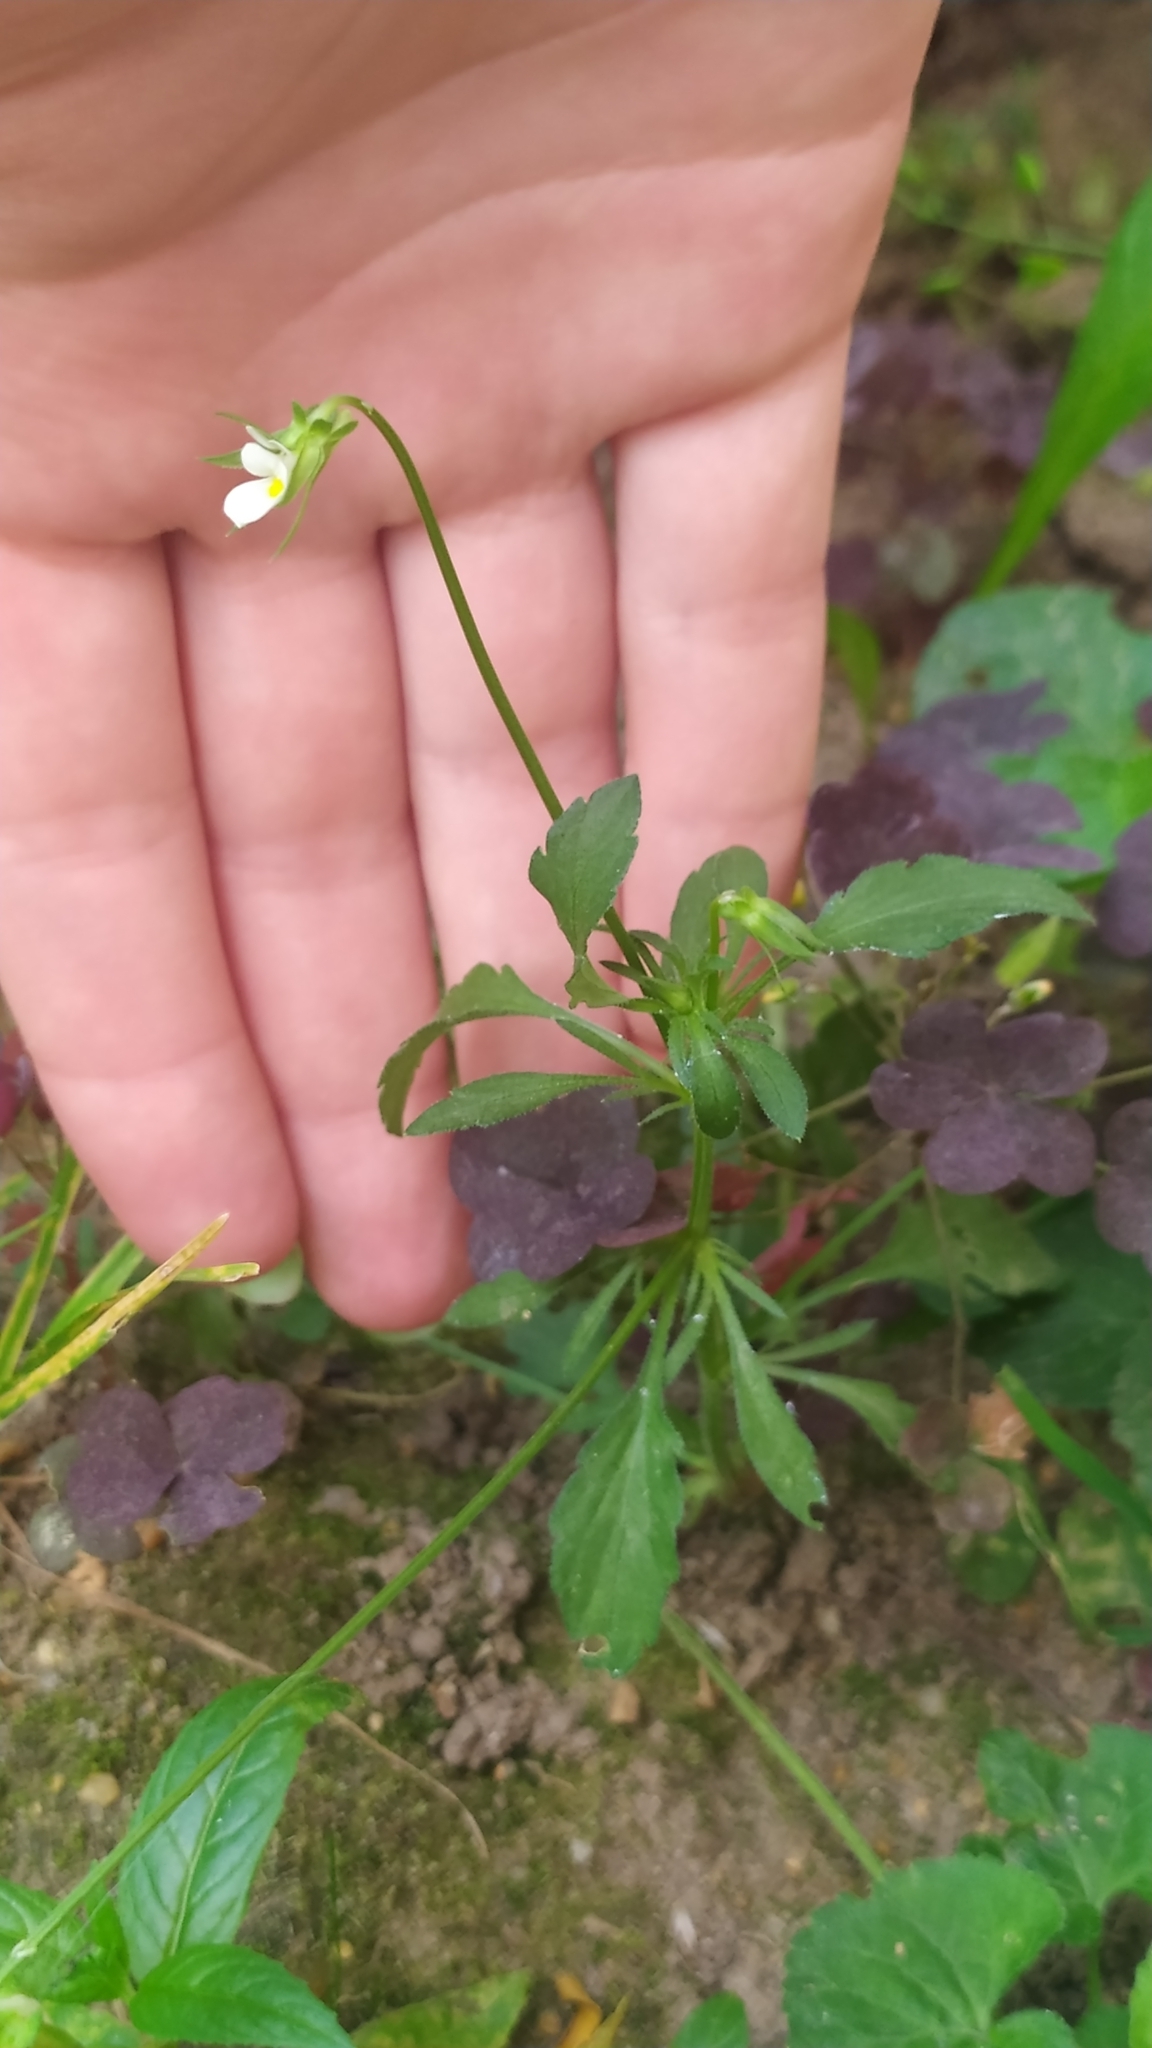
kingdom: Plantae
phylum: Tracheophyta
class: Magnoliopsida
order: Malpighiales
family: Violaceae
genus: Viola
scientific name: Viola arvensis
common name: Field pansy
